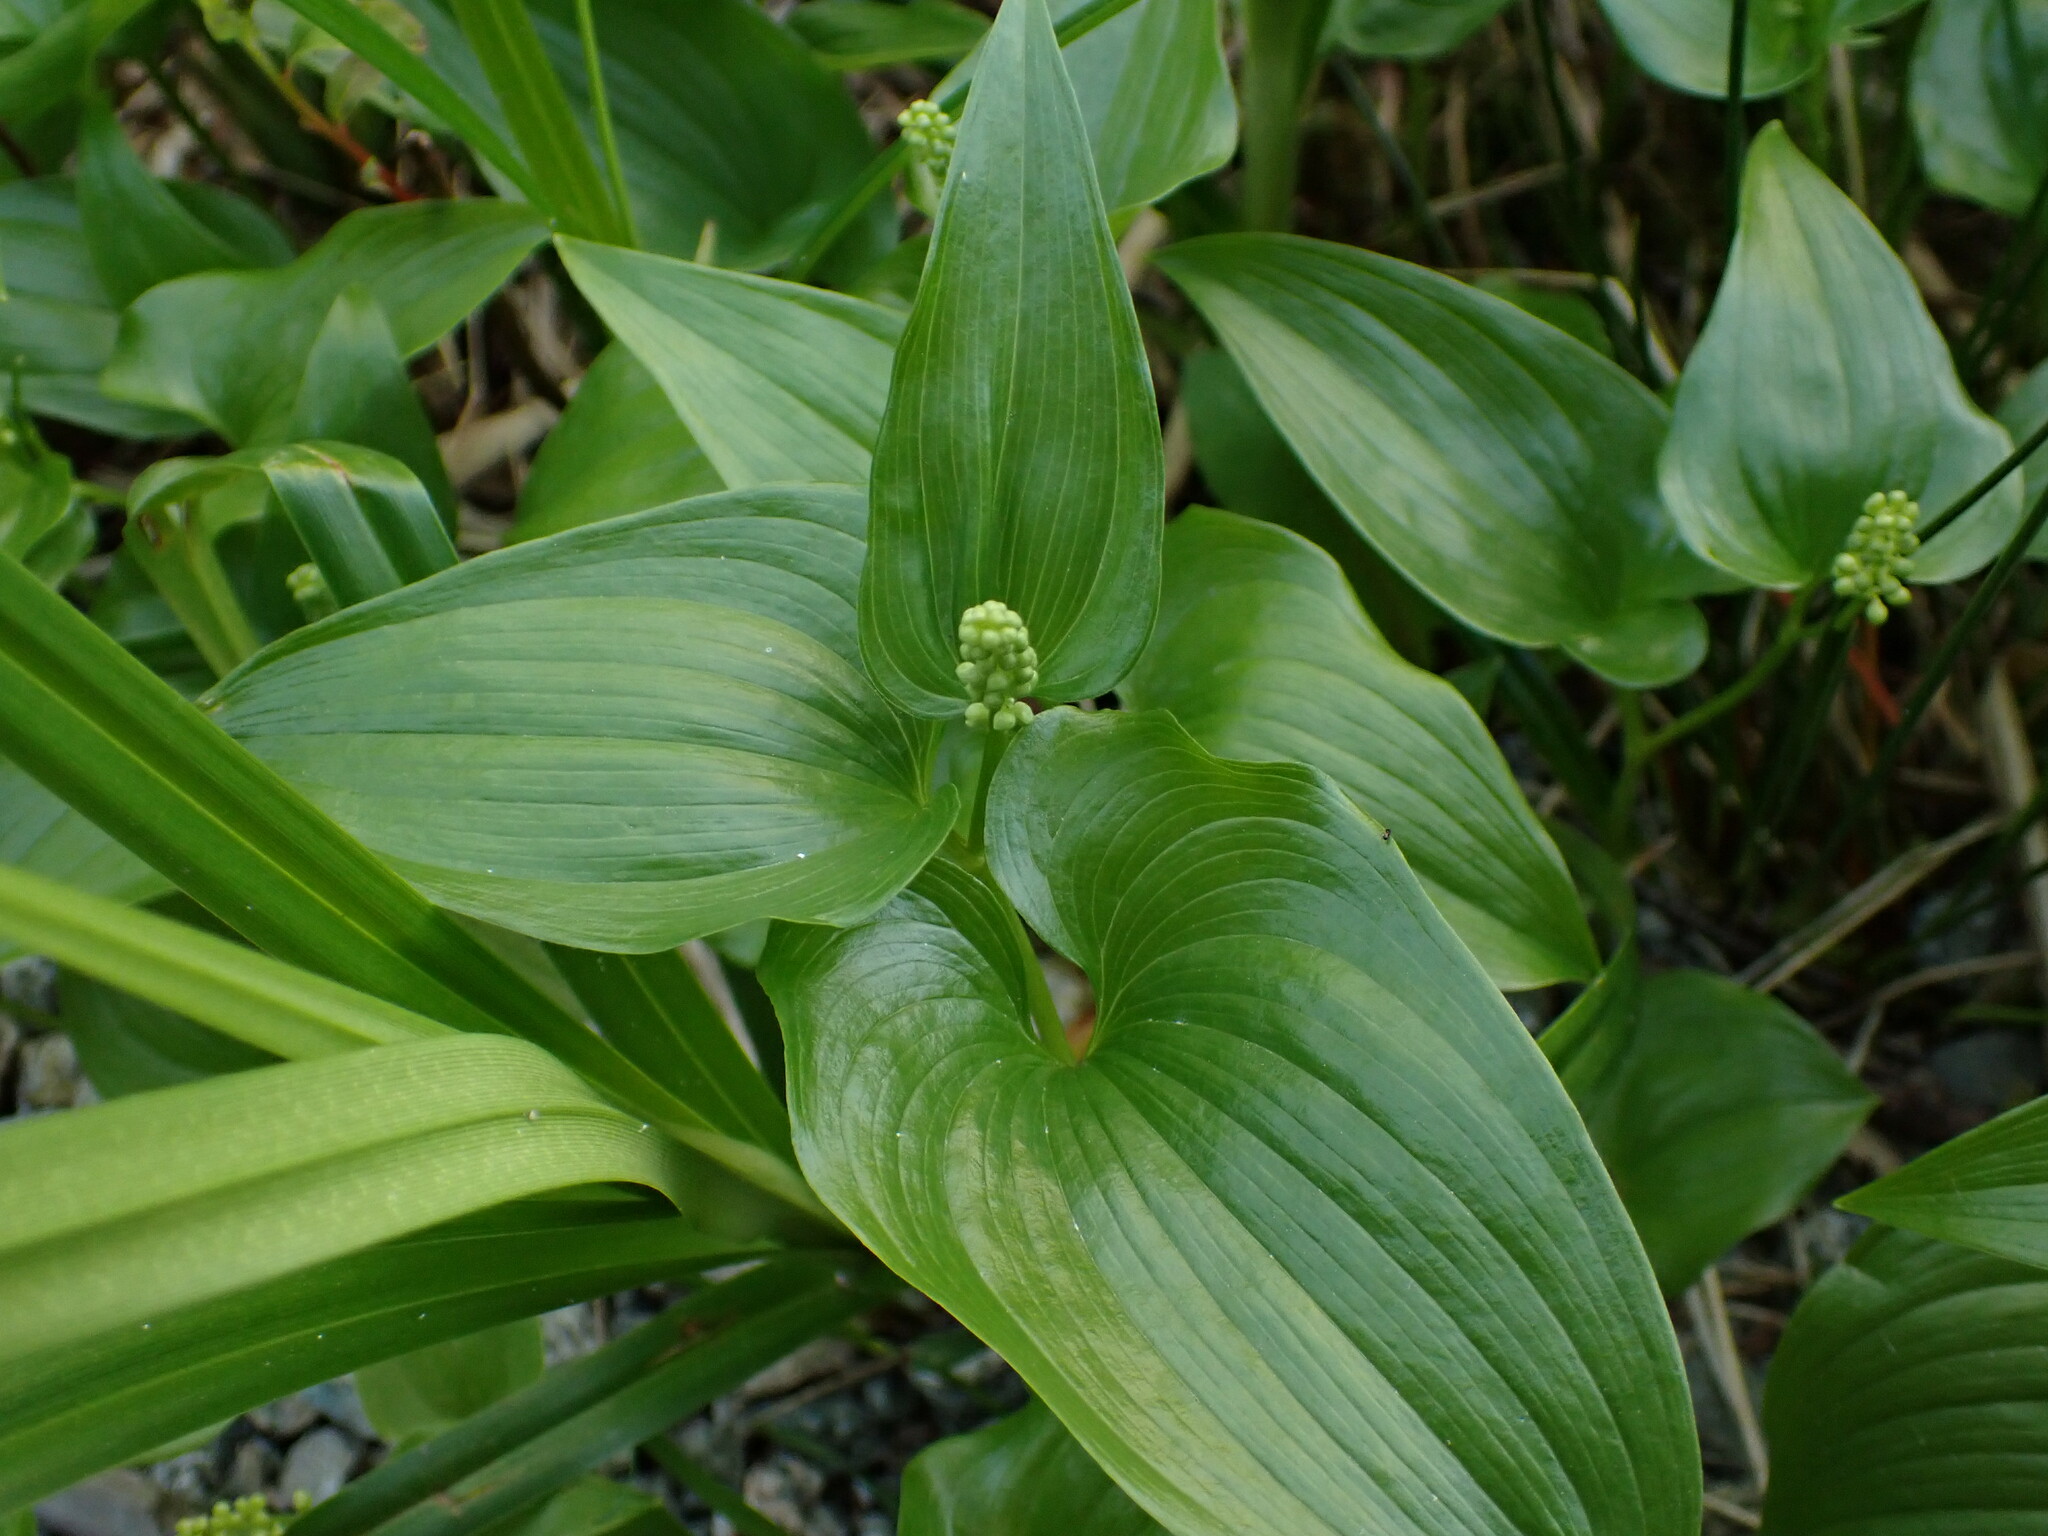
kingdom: Plantae
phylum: Tracheophyta
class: Liliopsida
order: Asparagales
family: Asparagaceae
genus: Maianthemum
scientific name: Maianthemum dilatatum
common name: False lily-of-the-valley
